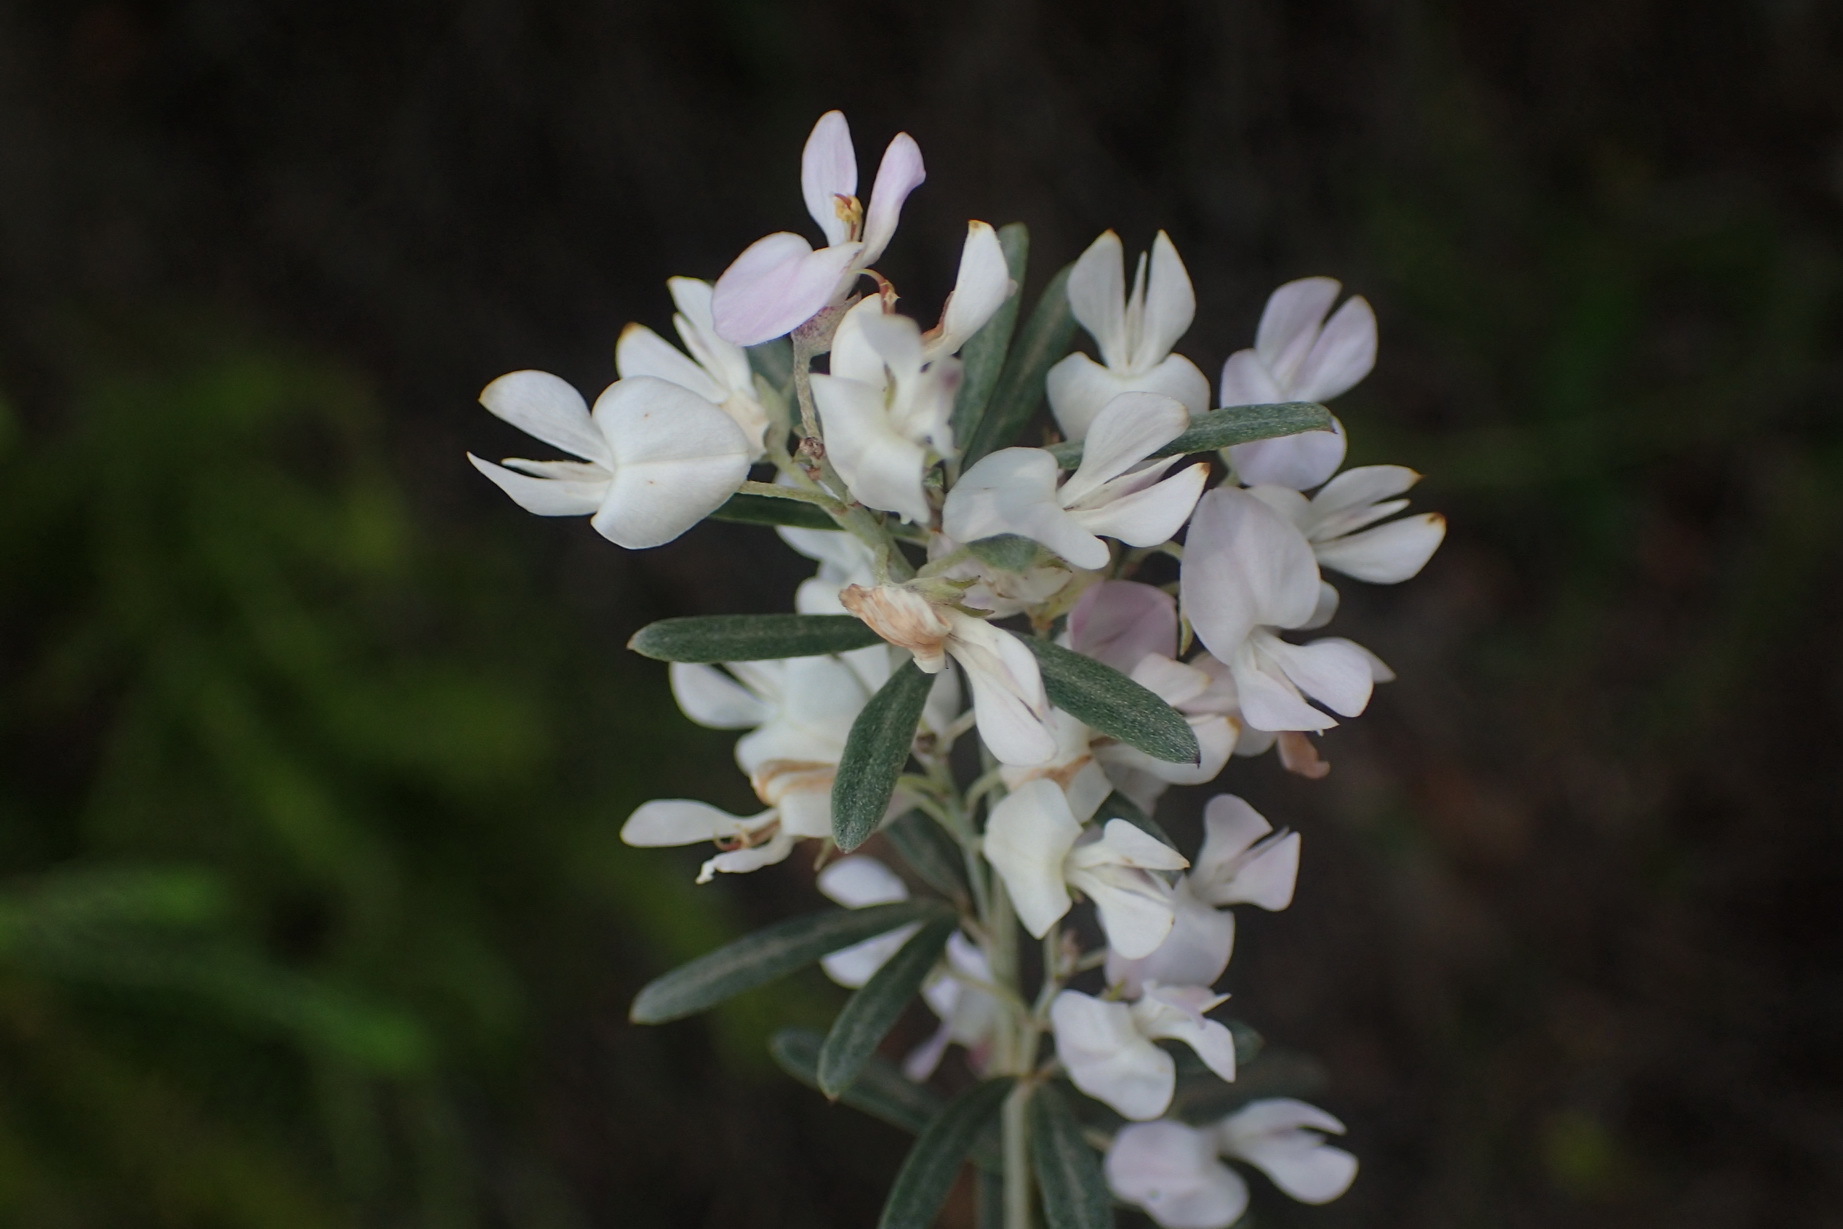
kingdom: Plantae
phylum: Tracheophyta
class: Magnoliopsida
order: Fabales
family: Fabaceae
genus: Indigofera
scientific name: Indigofera grisophylla
